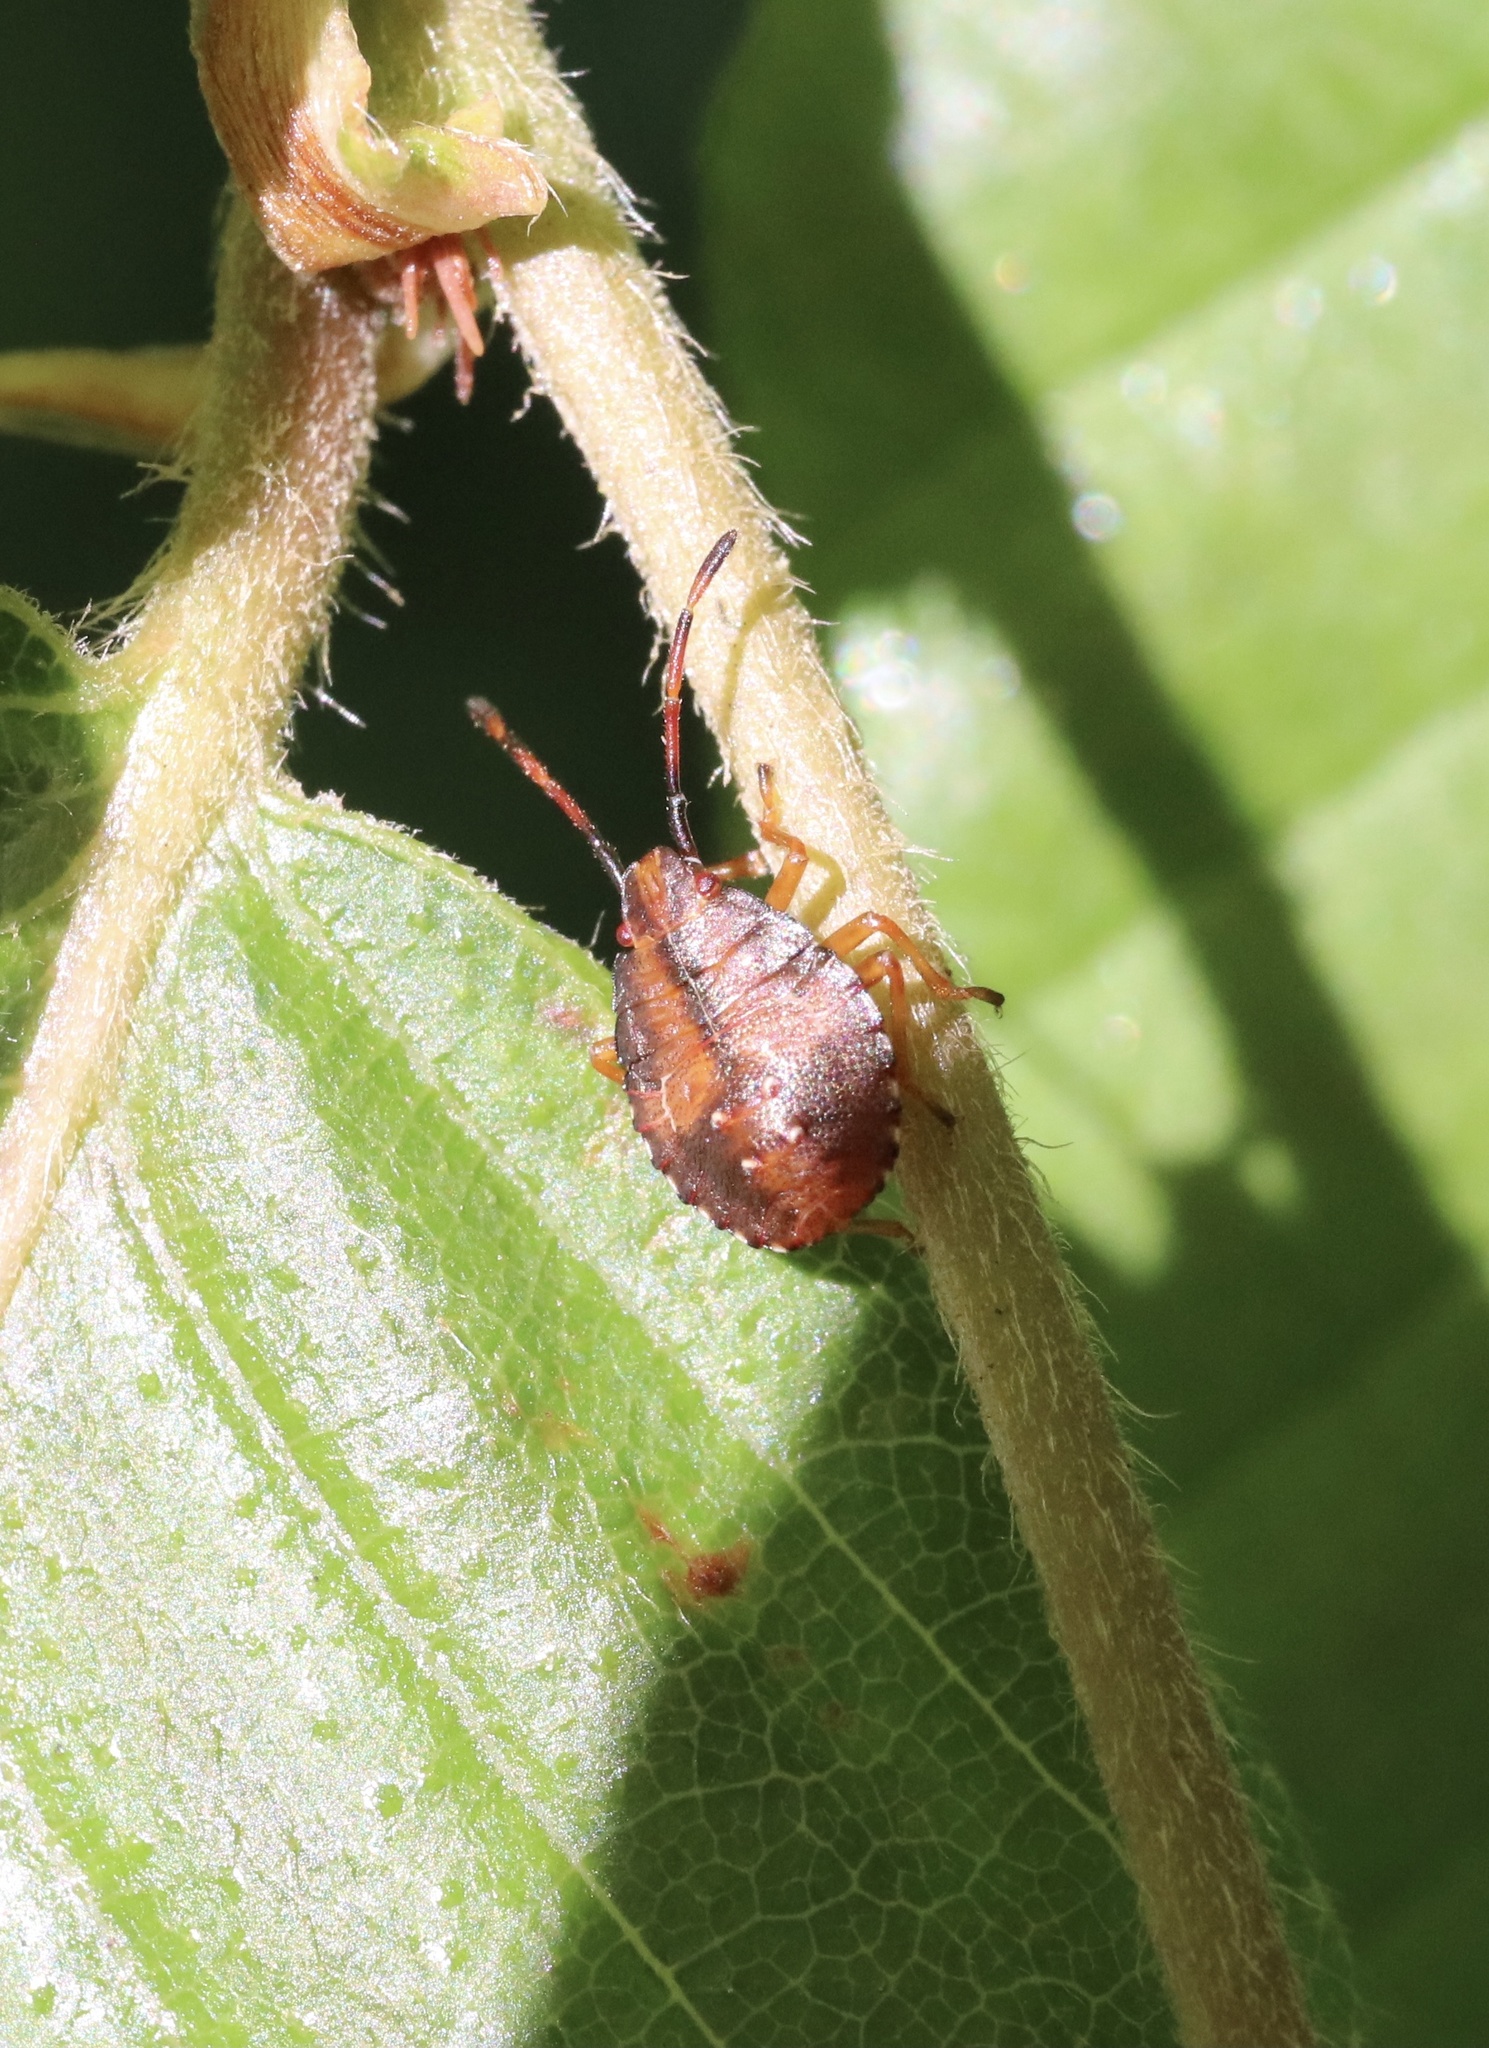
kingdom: Animalia
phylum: Arthropoda
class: Insecta
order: Hemiptera
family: Acanthosomatidae
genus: Planois
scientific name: Planois gayi
